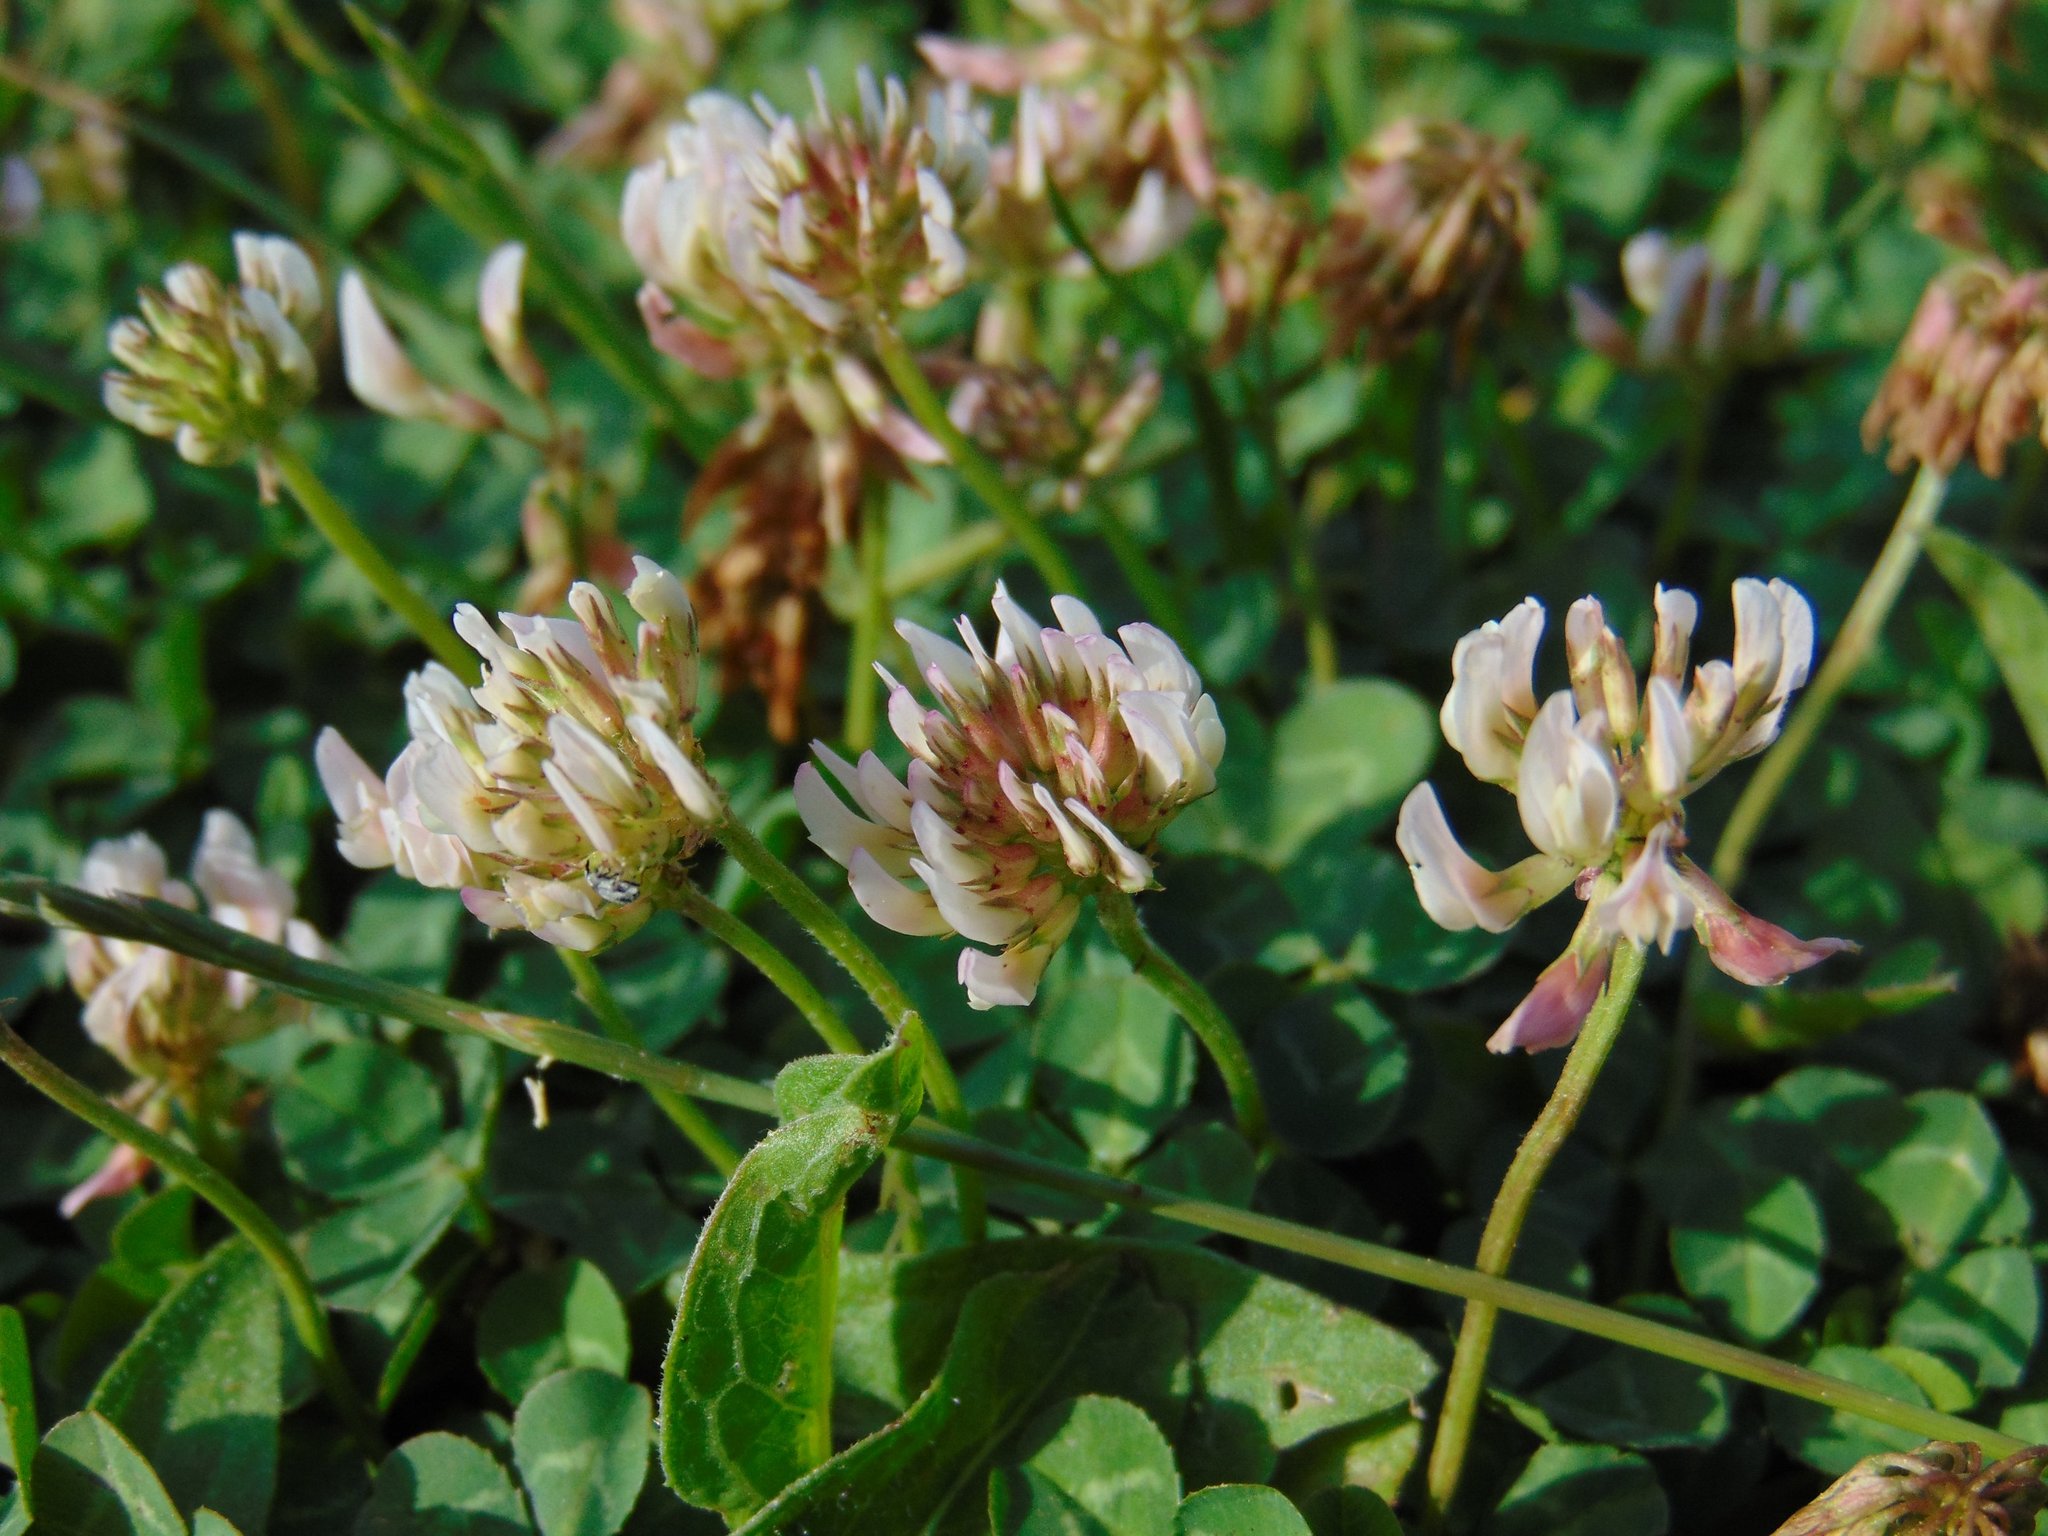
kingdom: Plantae
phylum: Tracheophyta
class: Magnoliopsida
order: Fabales
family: Fabaceae
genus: Trifolium
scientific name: Trifolium repens
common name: White clover
